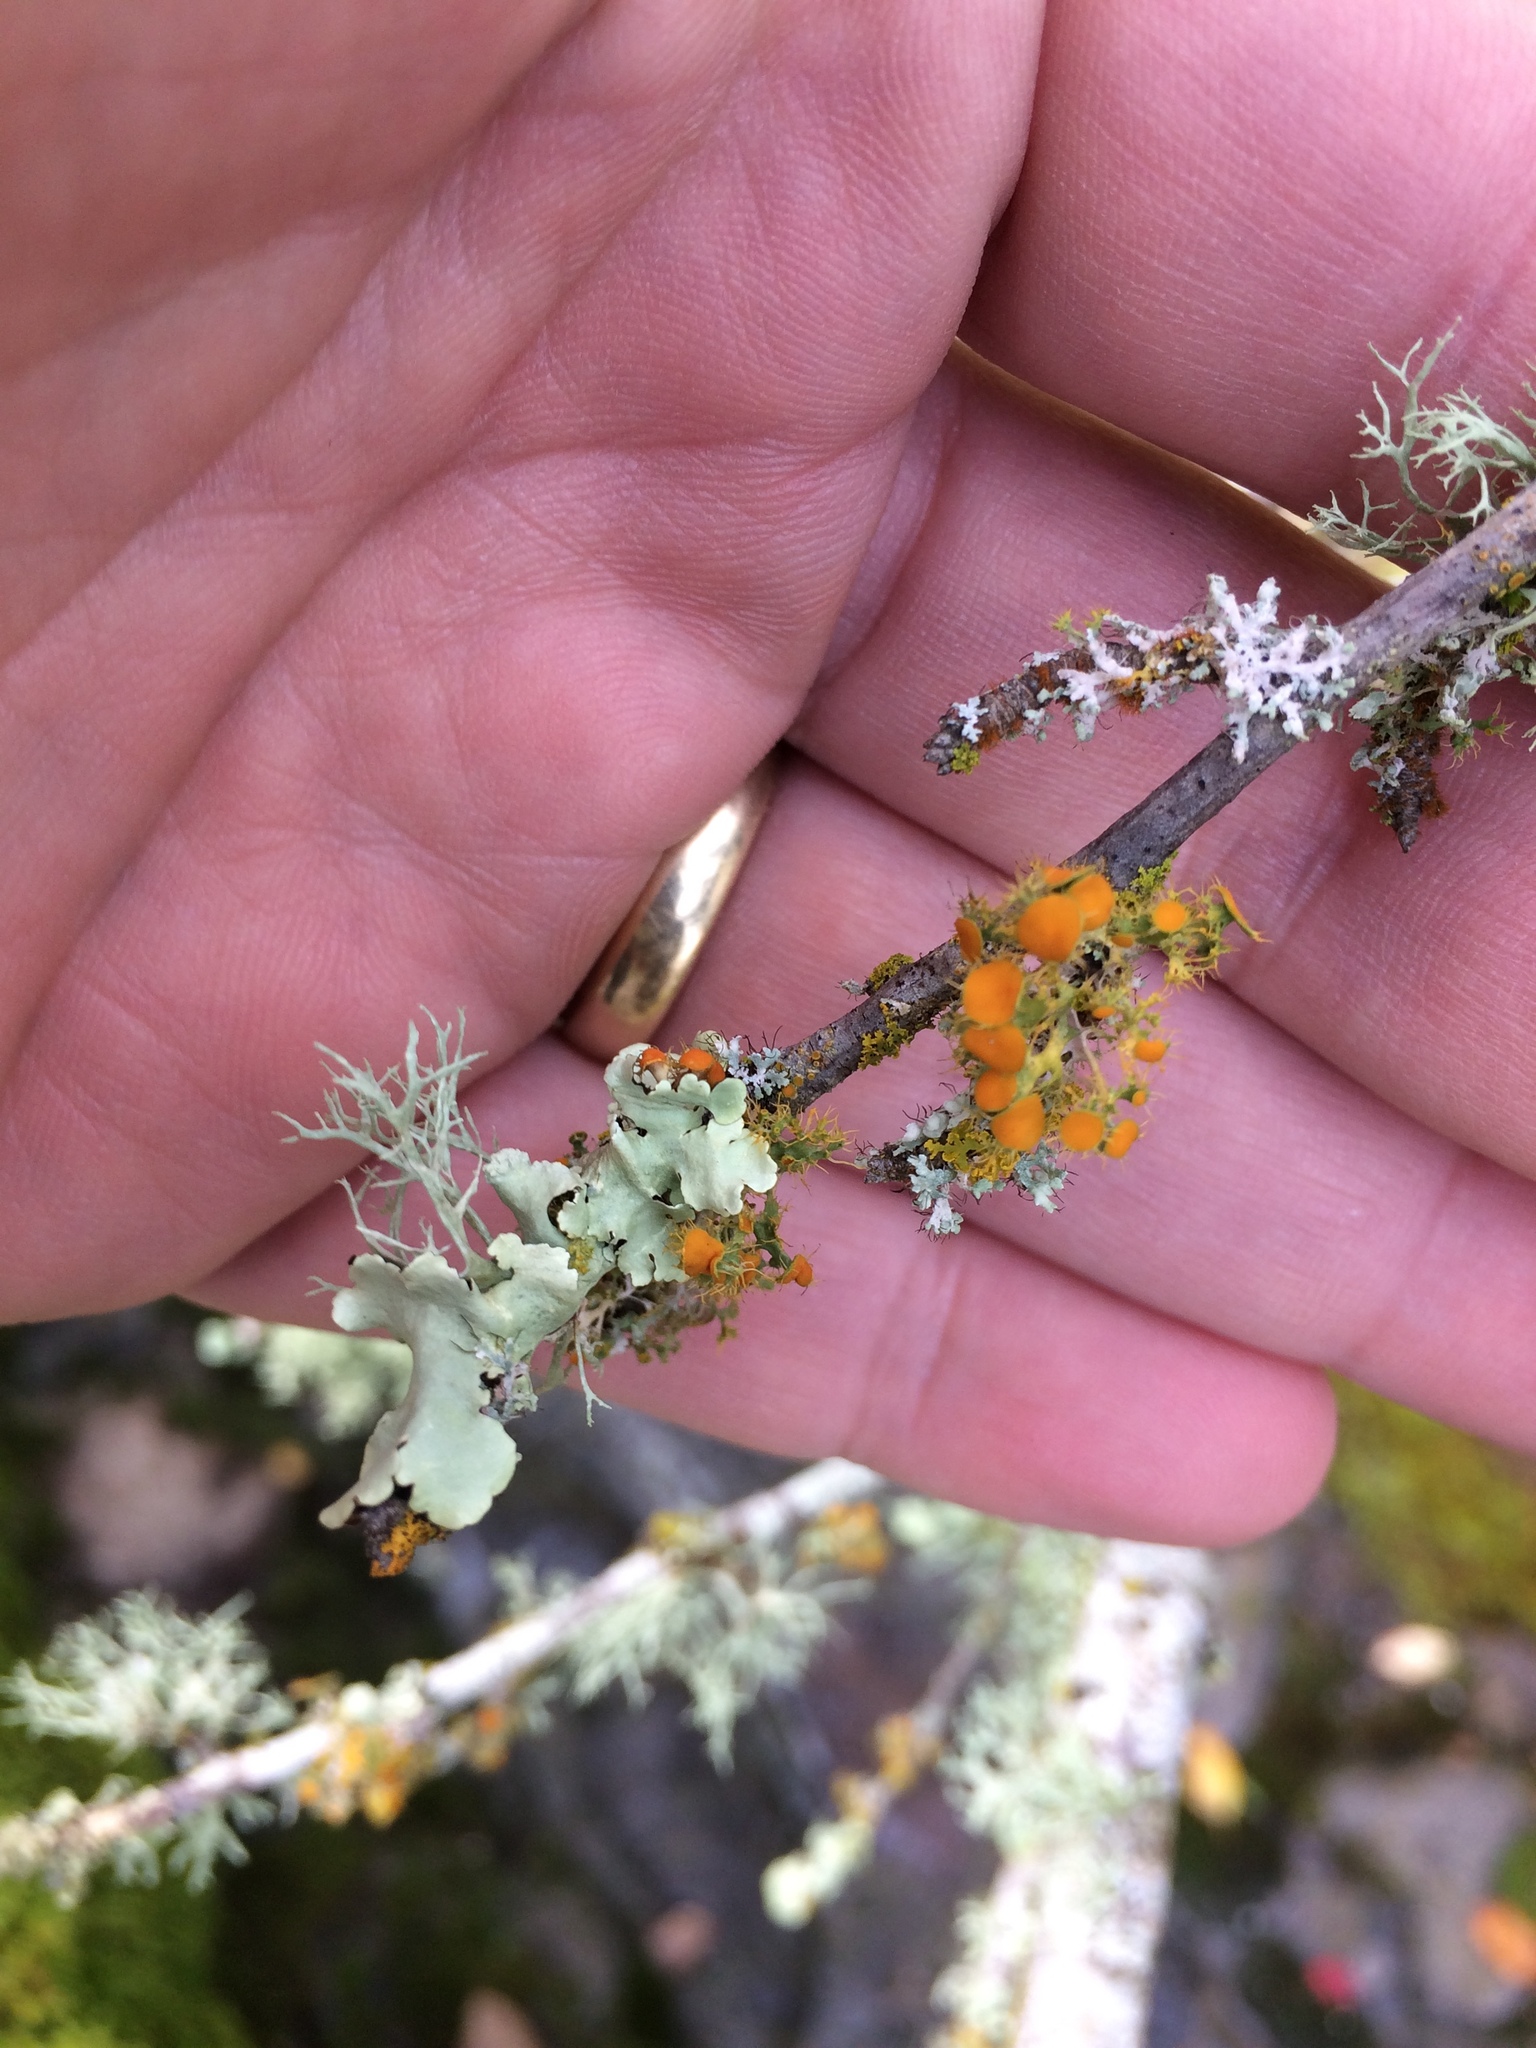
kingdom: Fungi
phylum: Ascomycota
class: Lecanoromycetes
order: Teloschistales
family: Teloschistaceae
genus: Niorma
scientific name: Niorma chrysophthalma
